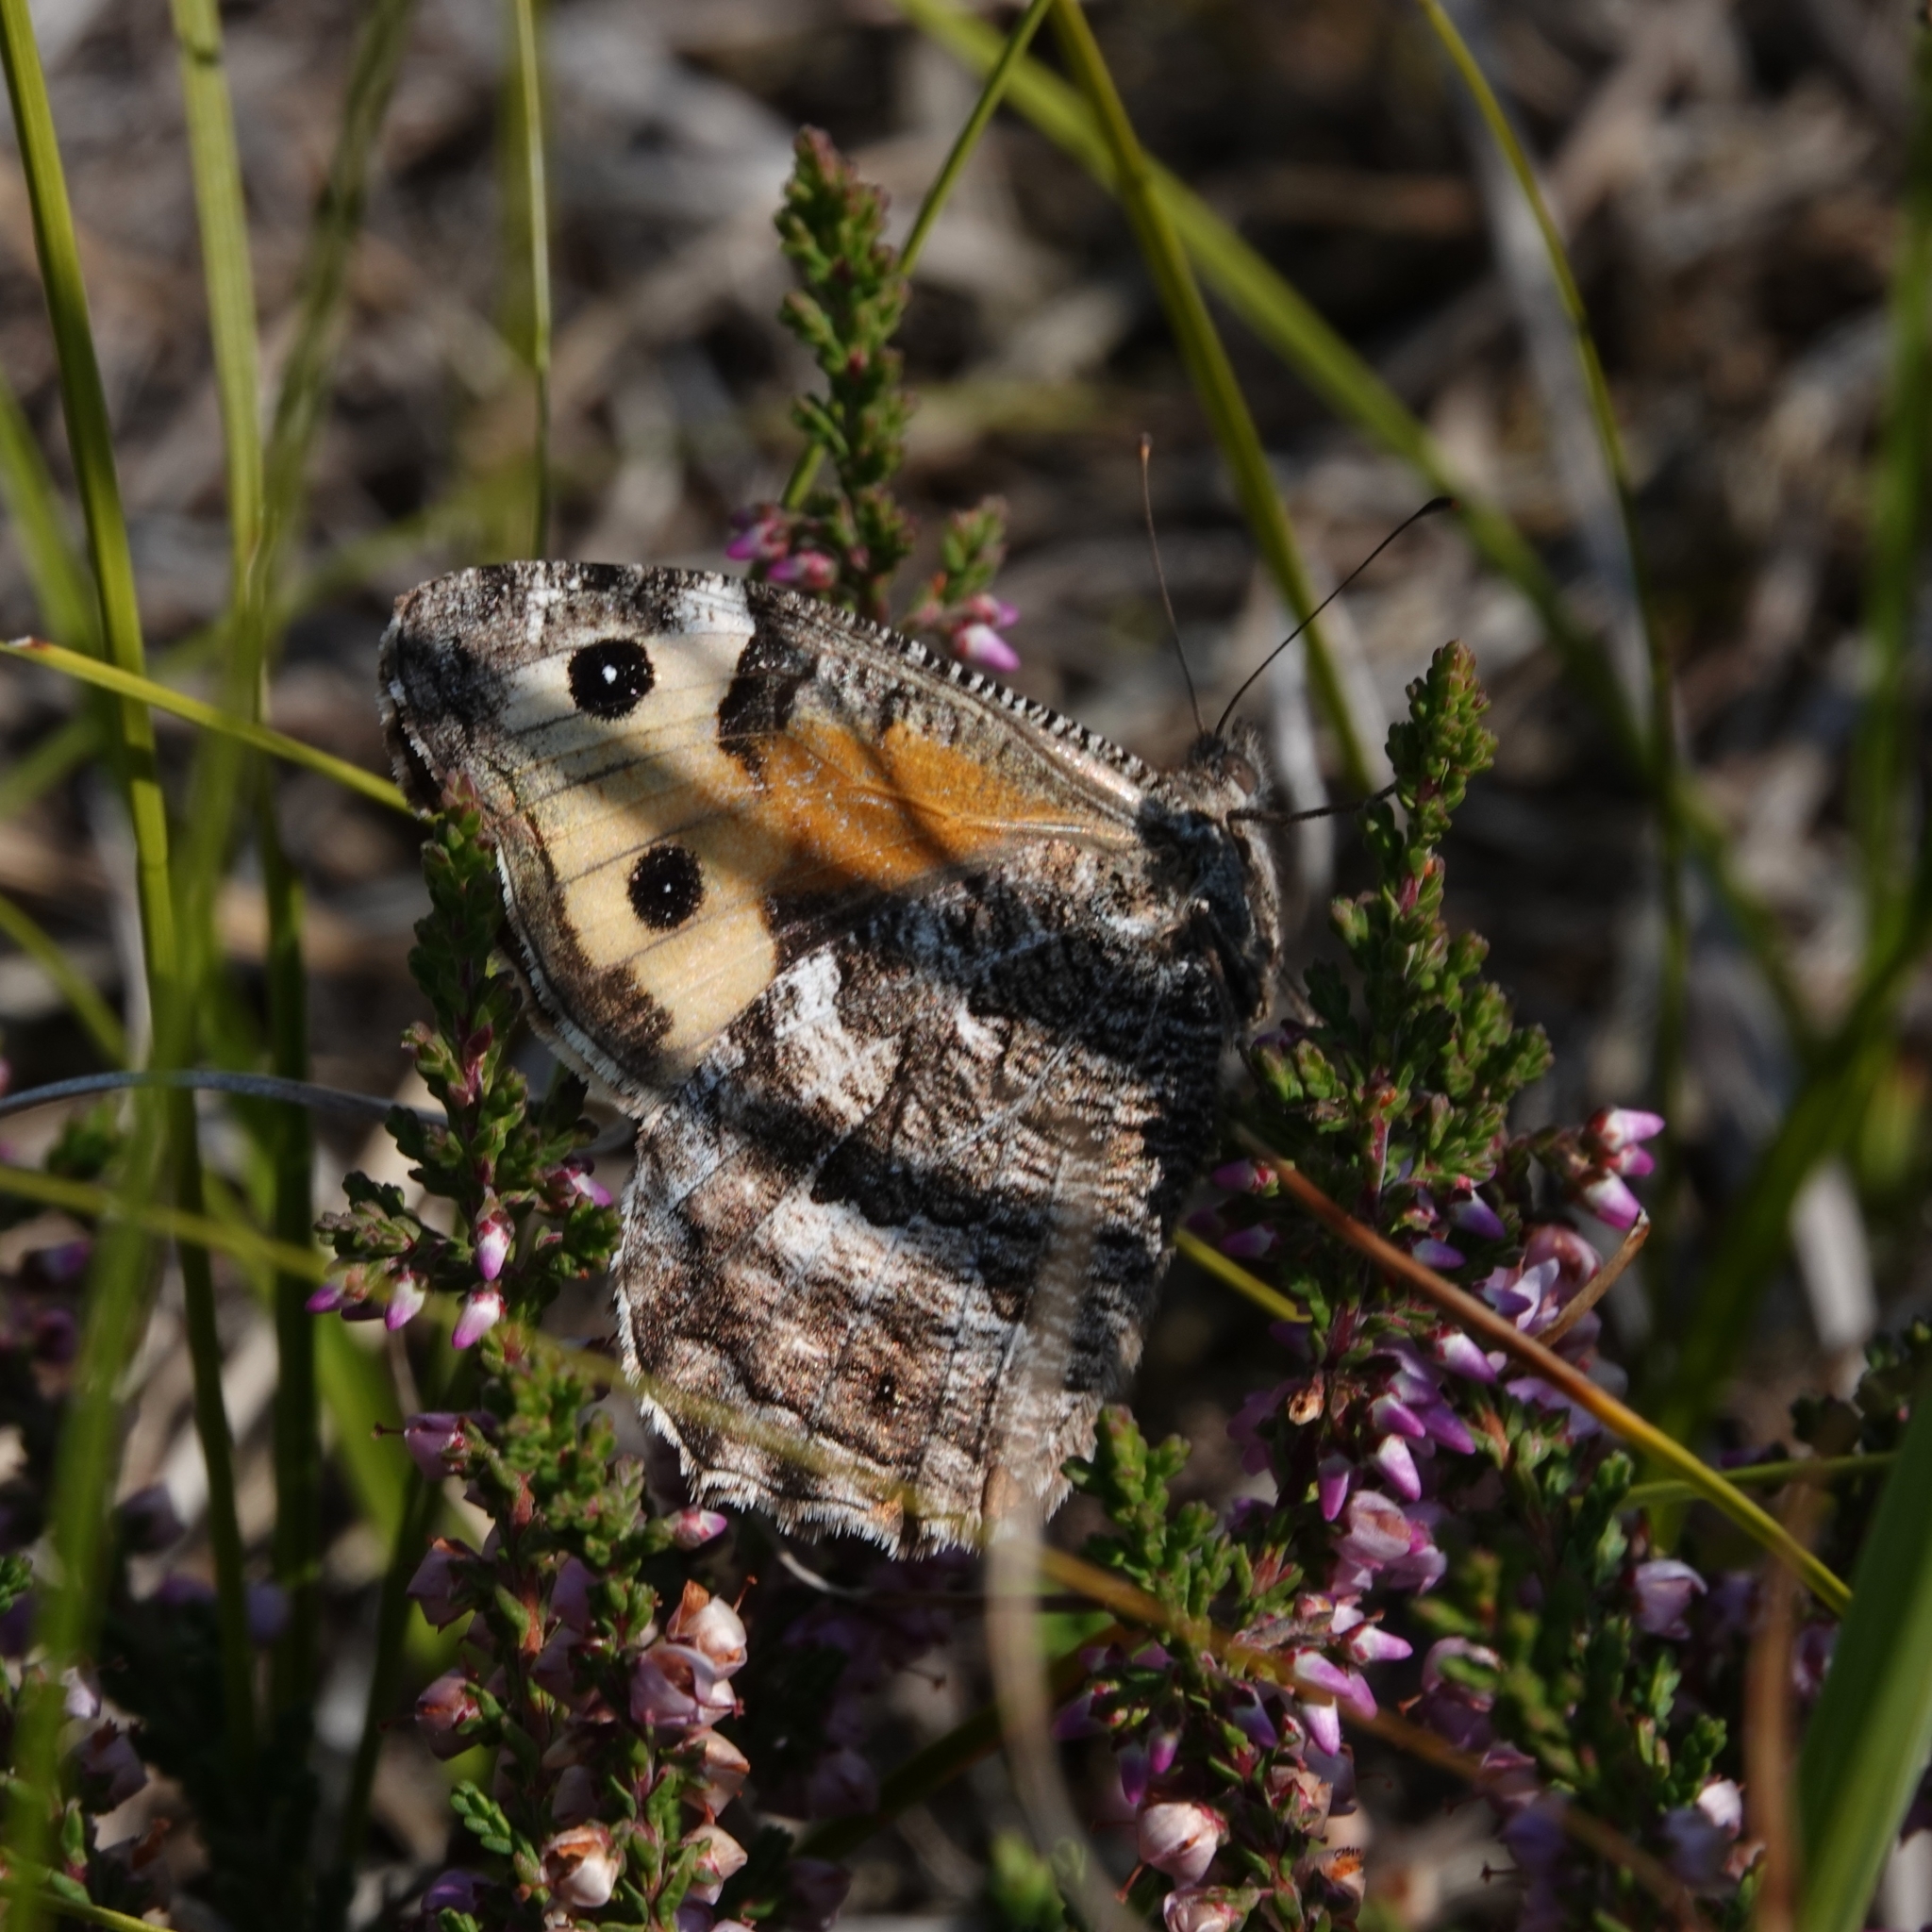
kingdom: Animalia
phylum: Arthropoda
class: Insecta
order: Lepidoptera
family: Nymphalidae
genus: Hipparchia
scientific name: Hipparchia semele
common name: Grayling
